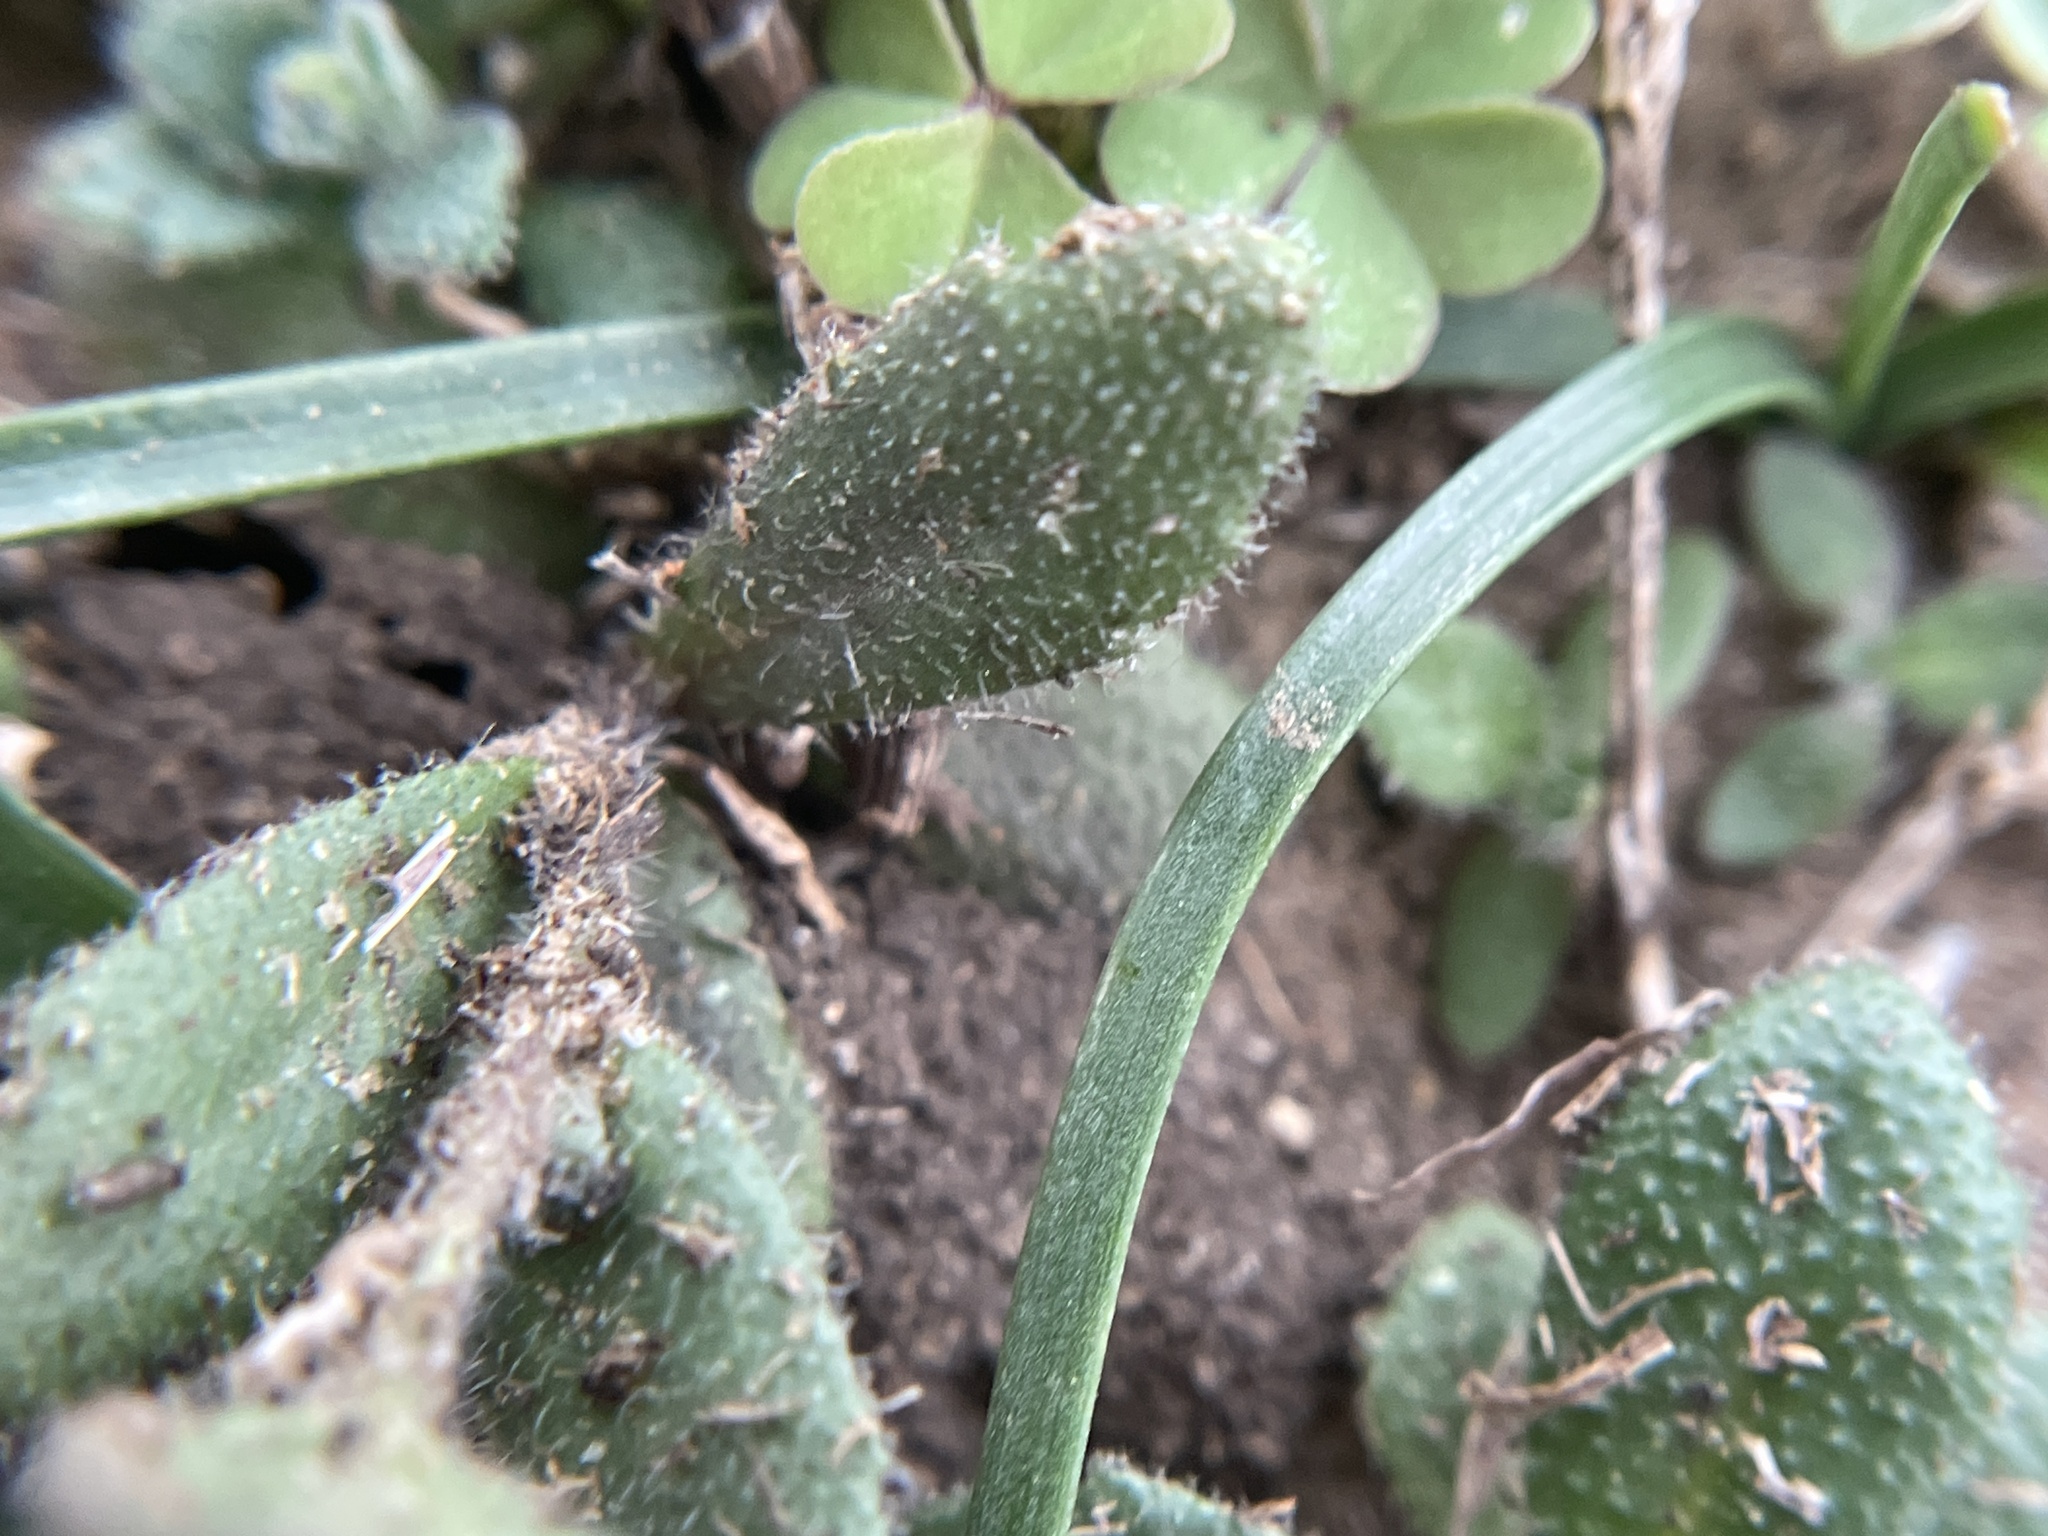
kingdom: Plantae
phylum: Tracheophyta
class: Magnoliopsida
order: Brassicales
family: Brassicaceae
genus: Tomostima
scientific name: Tomostima platycarpa
